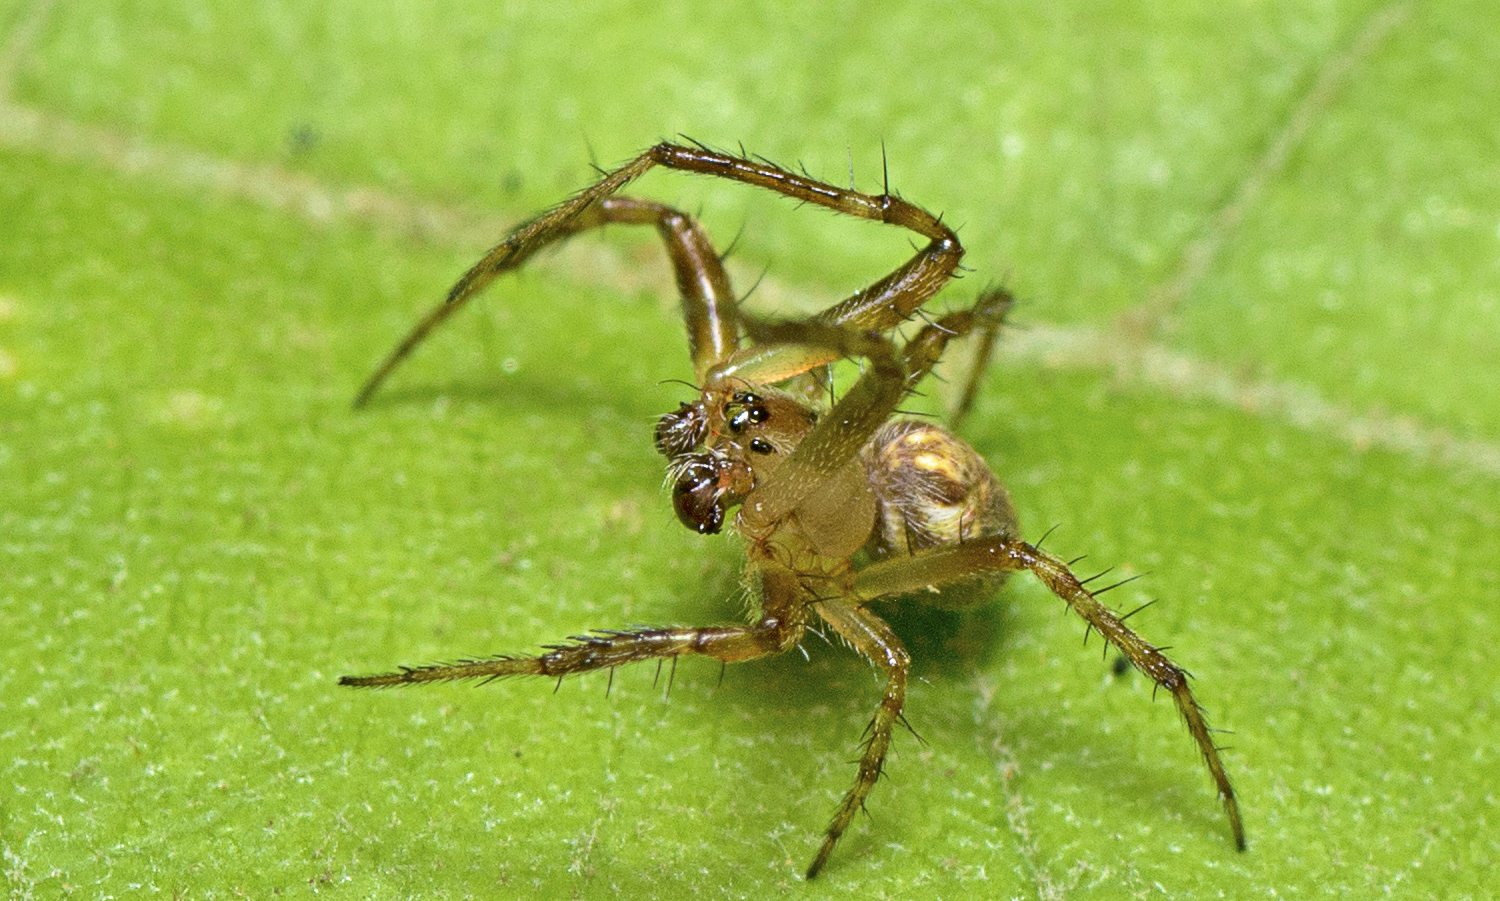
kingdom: Animalia
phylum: Arthropoda
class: Arachnida
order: Araneae
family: Araneidae
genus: Plebs
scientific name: Plebs eburnus
